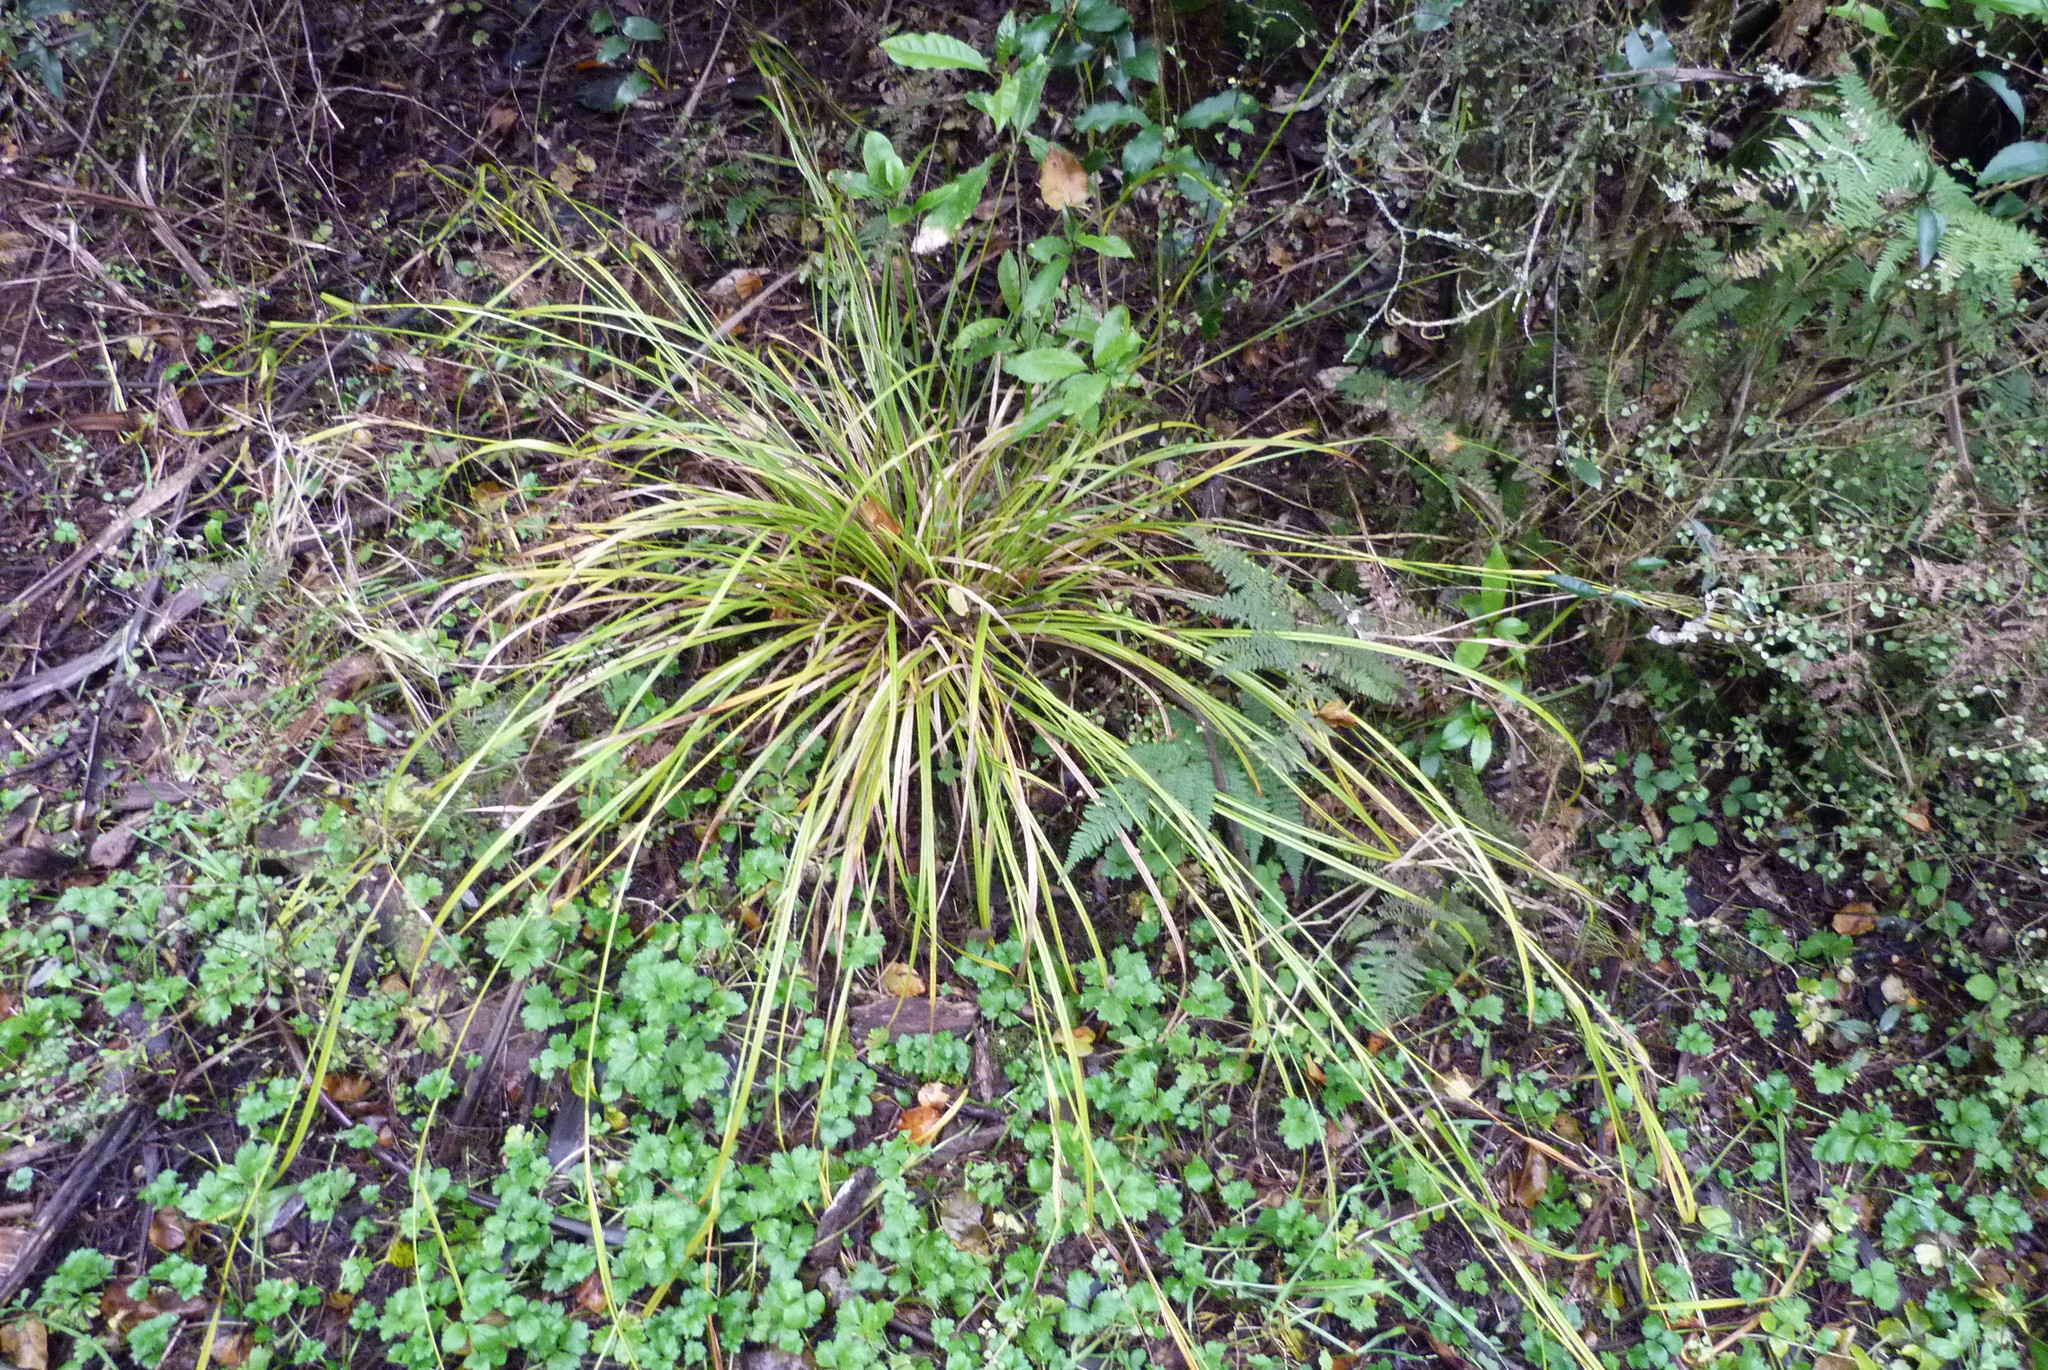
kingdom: Plantae
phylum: Tracheophyta
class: Liliopsida
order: Poales
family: Cyperaceae
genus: Carex
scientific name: Carex solandri
